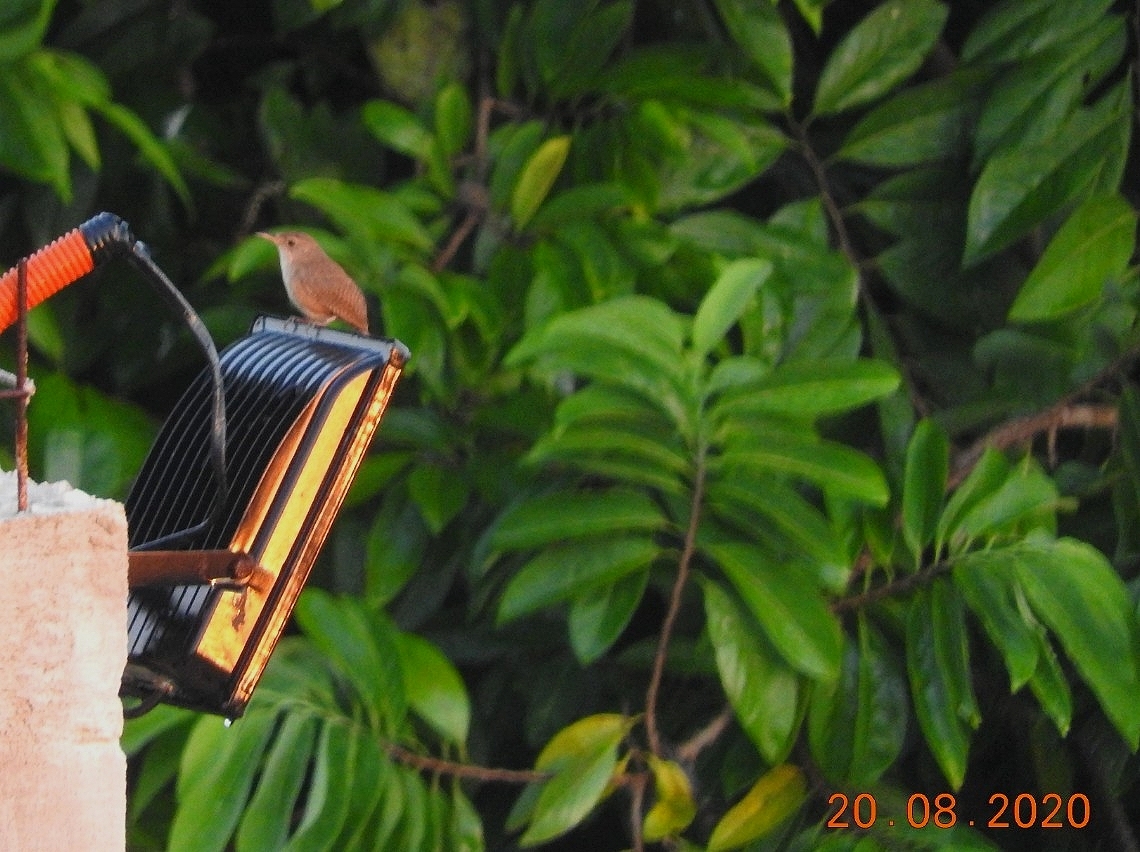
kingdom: Animalia
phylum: Chordata
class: Aves
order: Passeriformes
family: Troglodytidae
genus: Troglodytes
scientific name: Troglodytes aedon
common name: House wren
